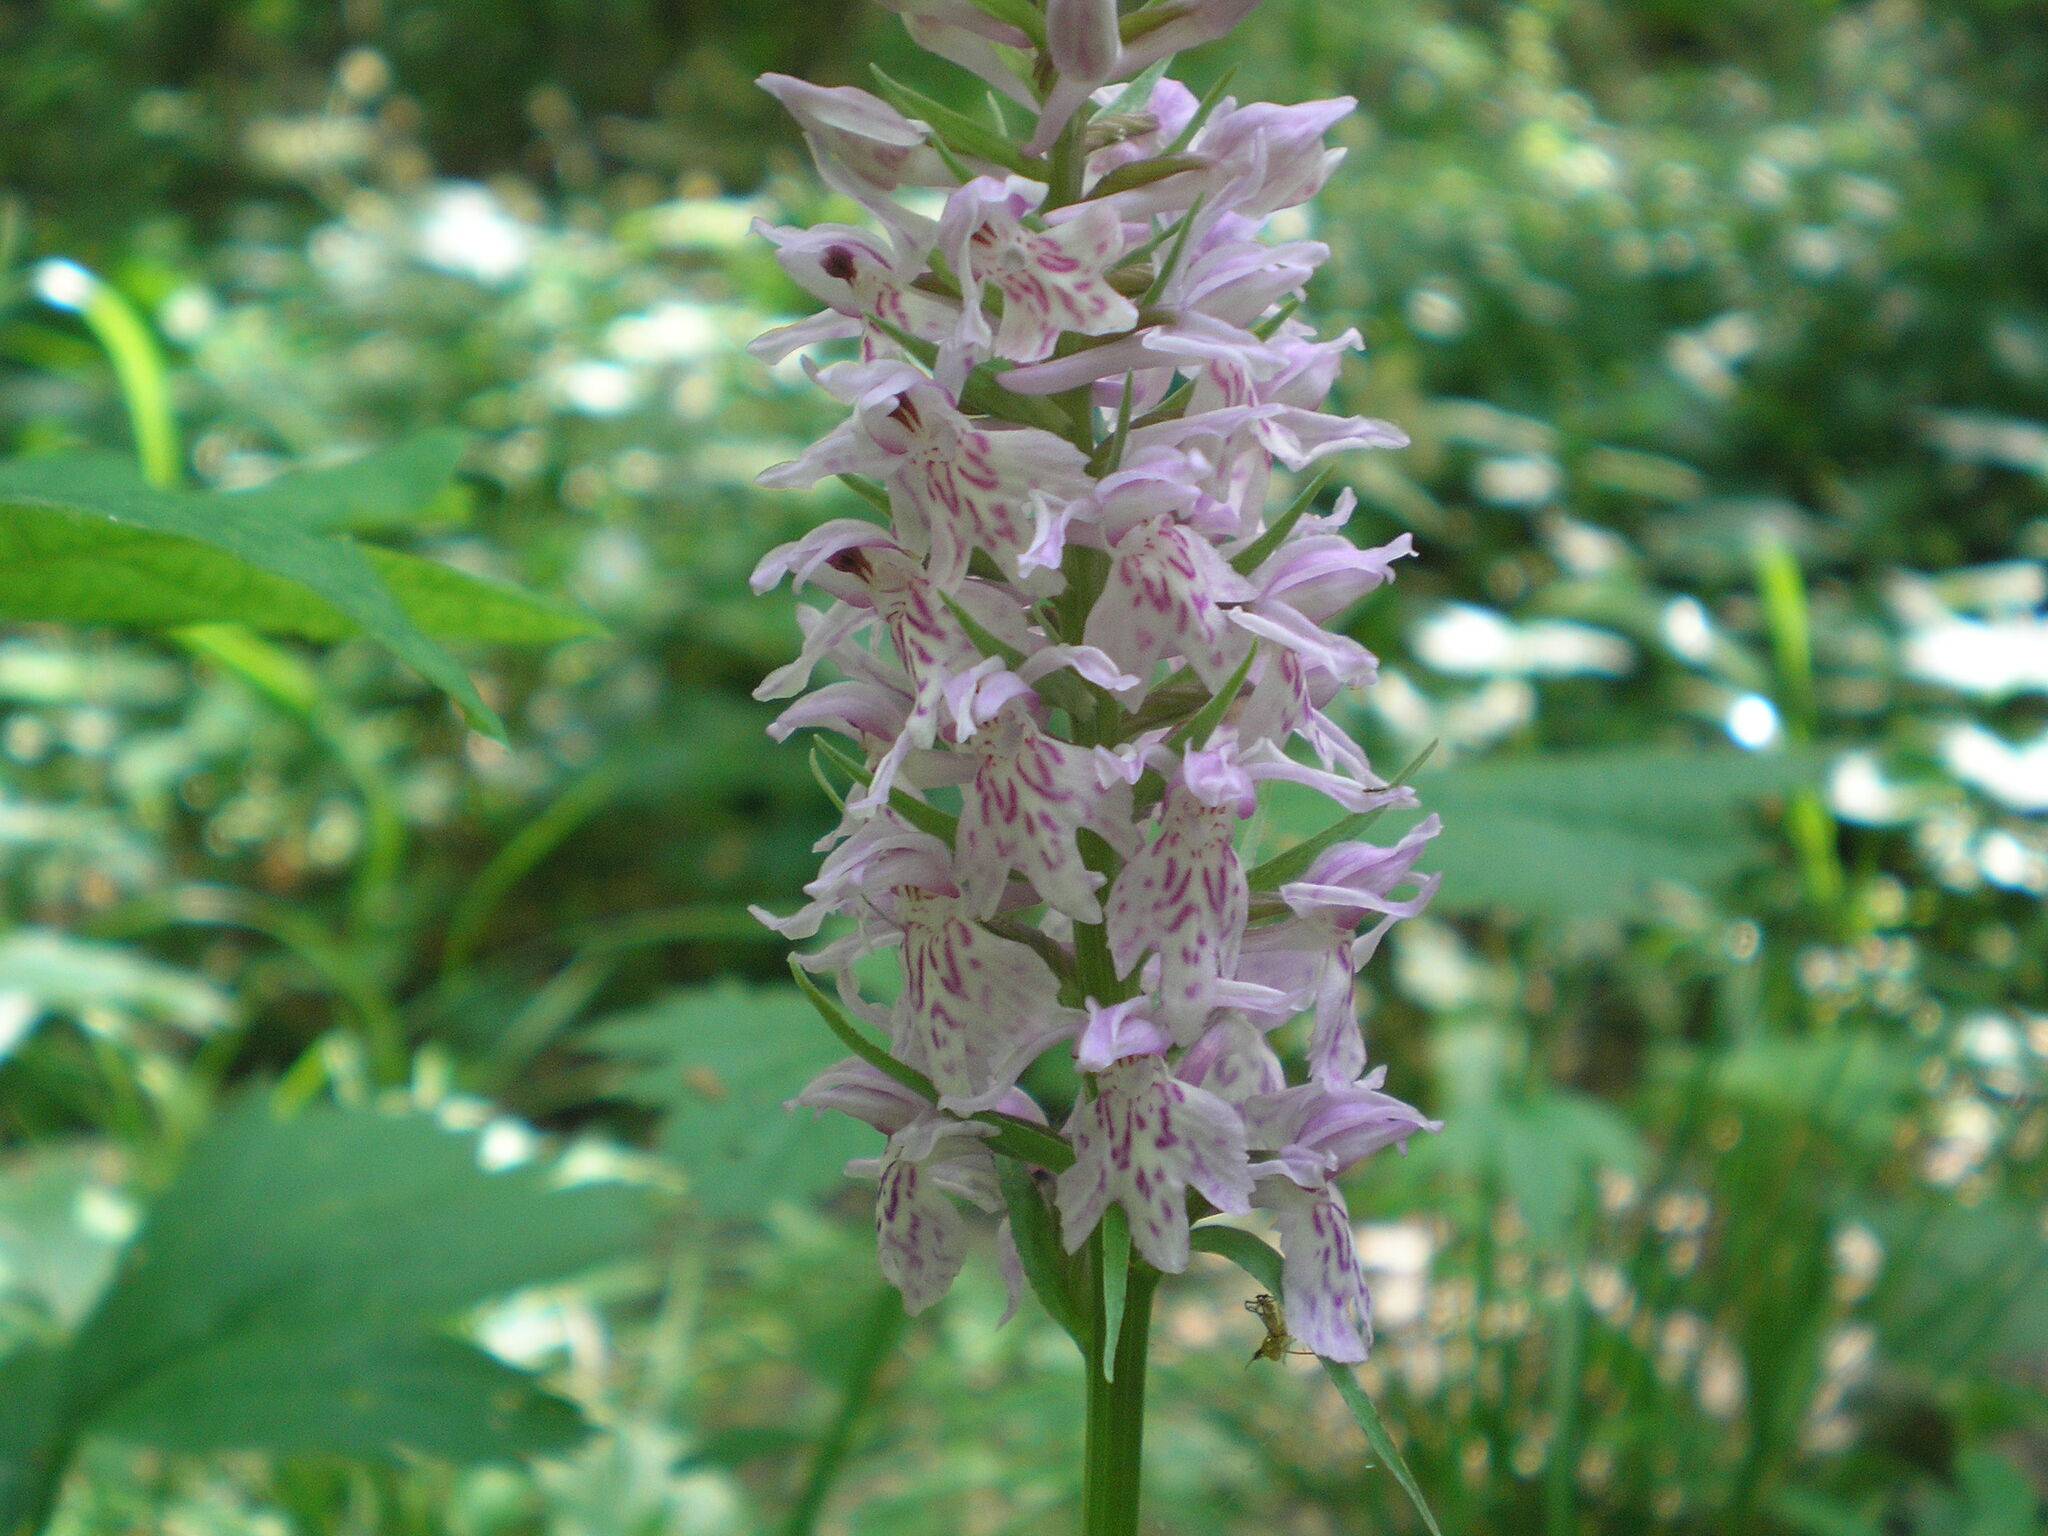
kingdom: Plantae
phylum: Tracheophyta
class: Liliopsida
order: Asparagales
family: Orchidaceae
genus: Dactylorhiza
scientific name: Dactylorhiza maculata
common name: Heath spotted-orchid
